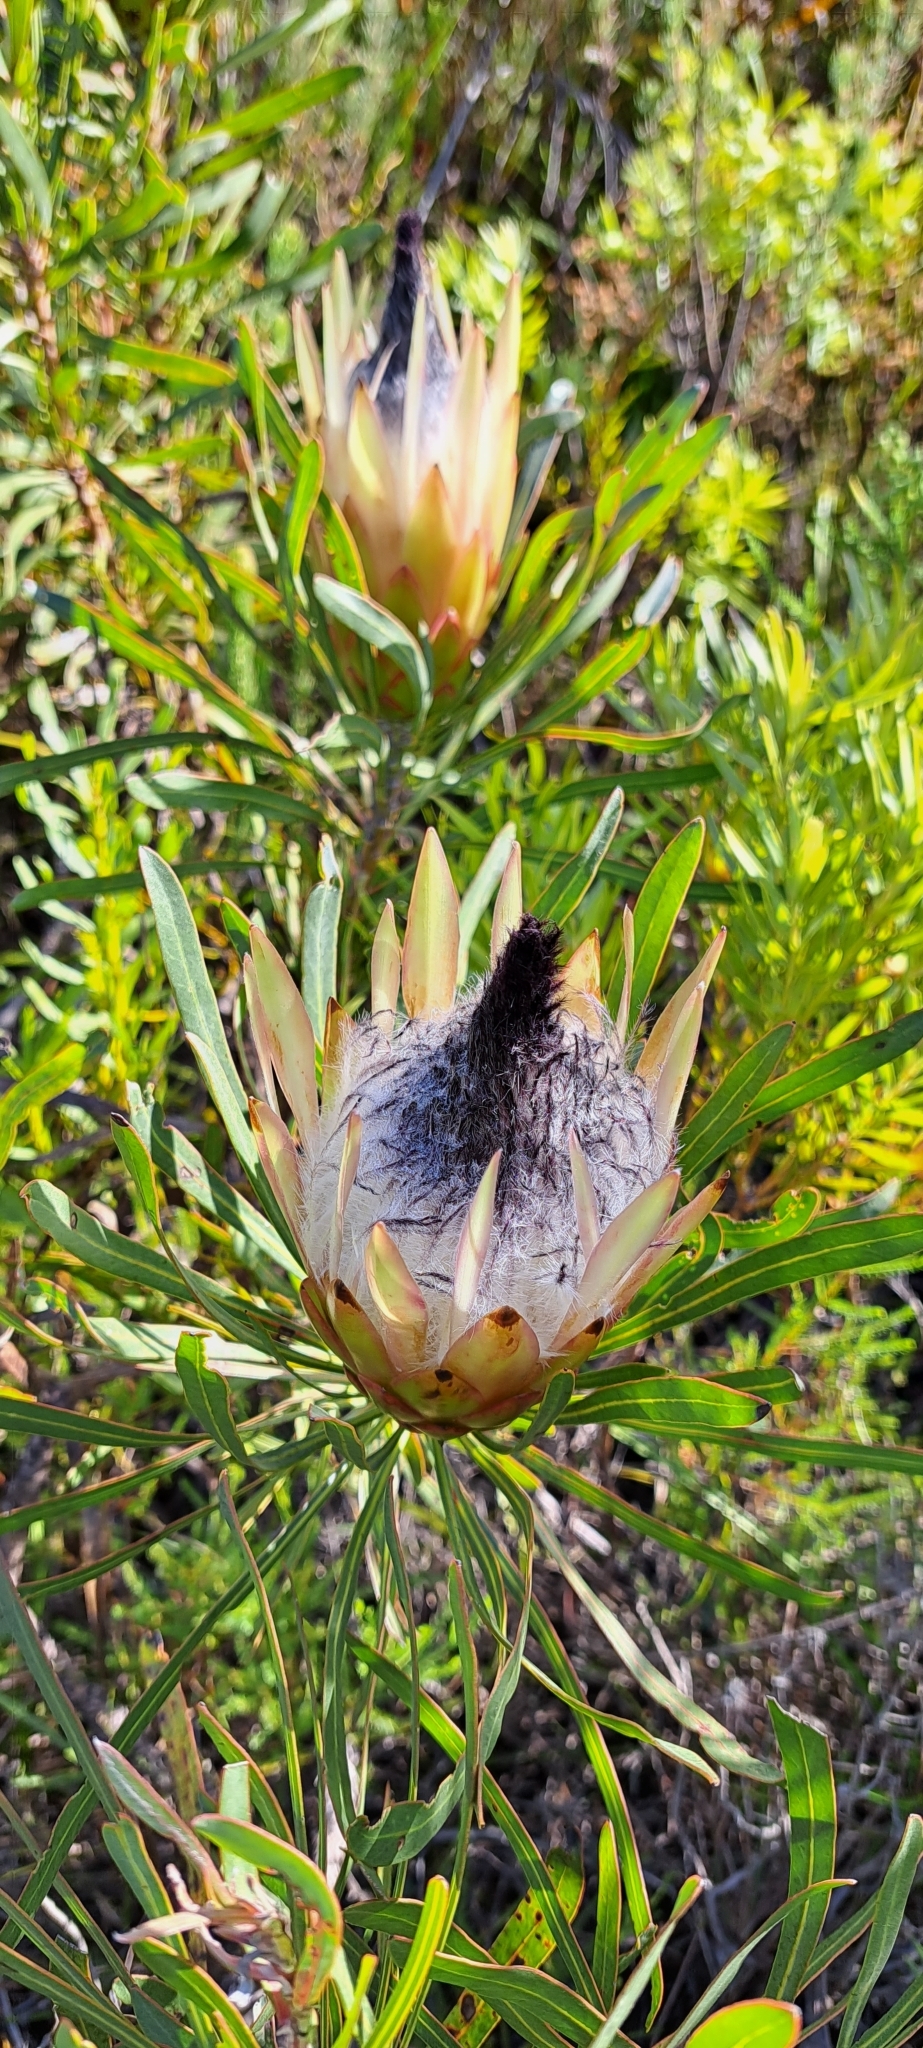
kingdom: Plantae
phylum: Tracheophyta
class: Magnoliopsida
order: Proteales
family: Proteaceae
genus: Protea
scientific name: Protea longifolia
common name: Long-leaf sugarbush
